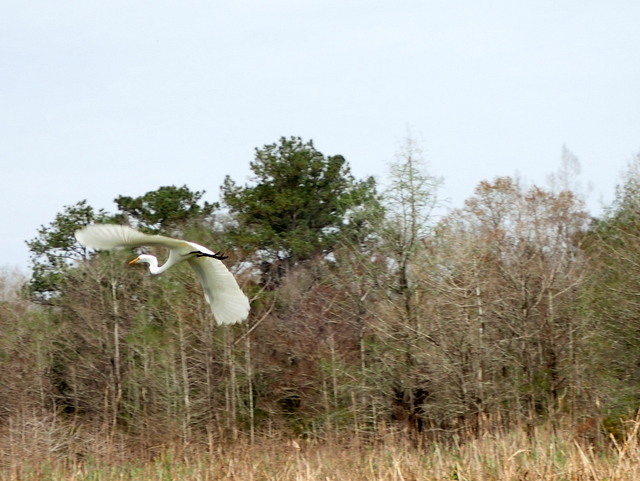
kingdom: Animalia
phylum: Chordata
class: Aves
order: Pelecaniformes
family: Ardeidae
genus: Ardea
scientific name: Ardea alba
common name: Great egret
